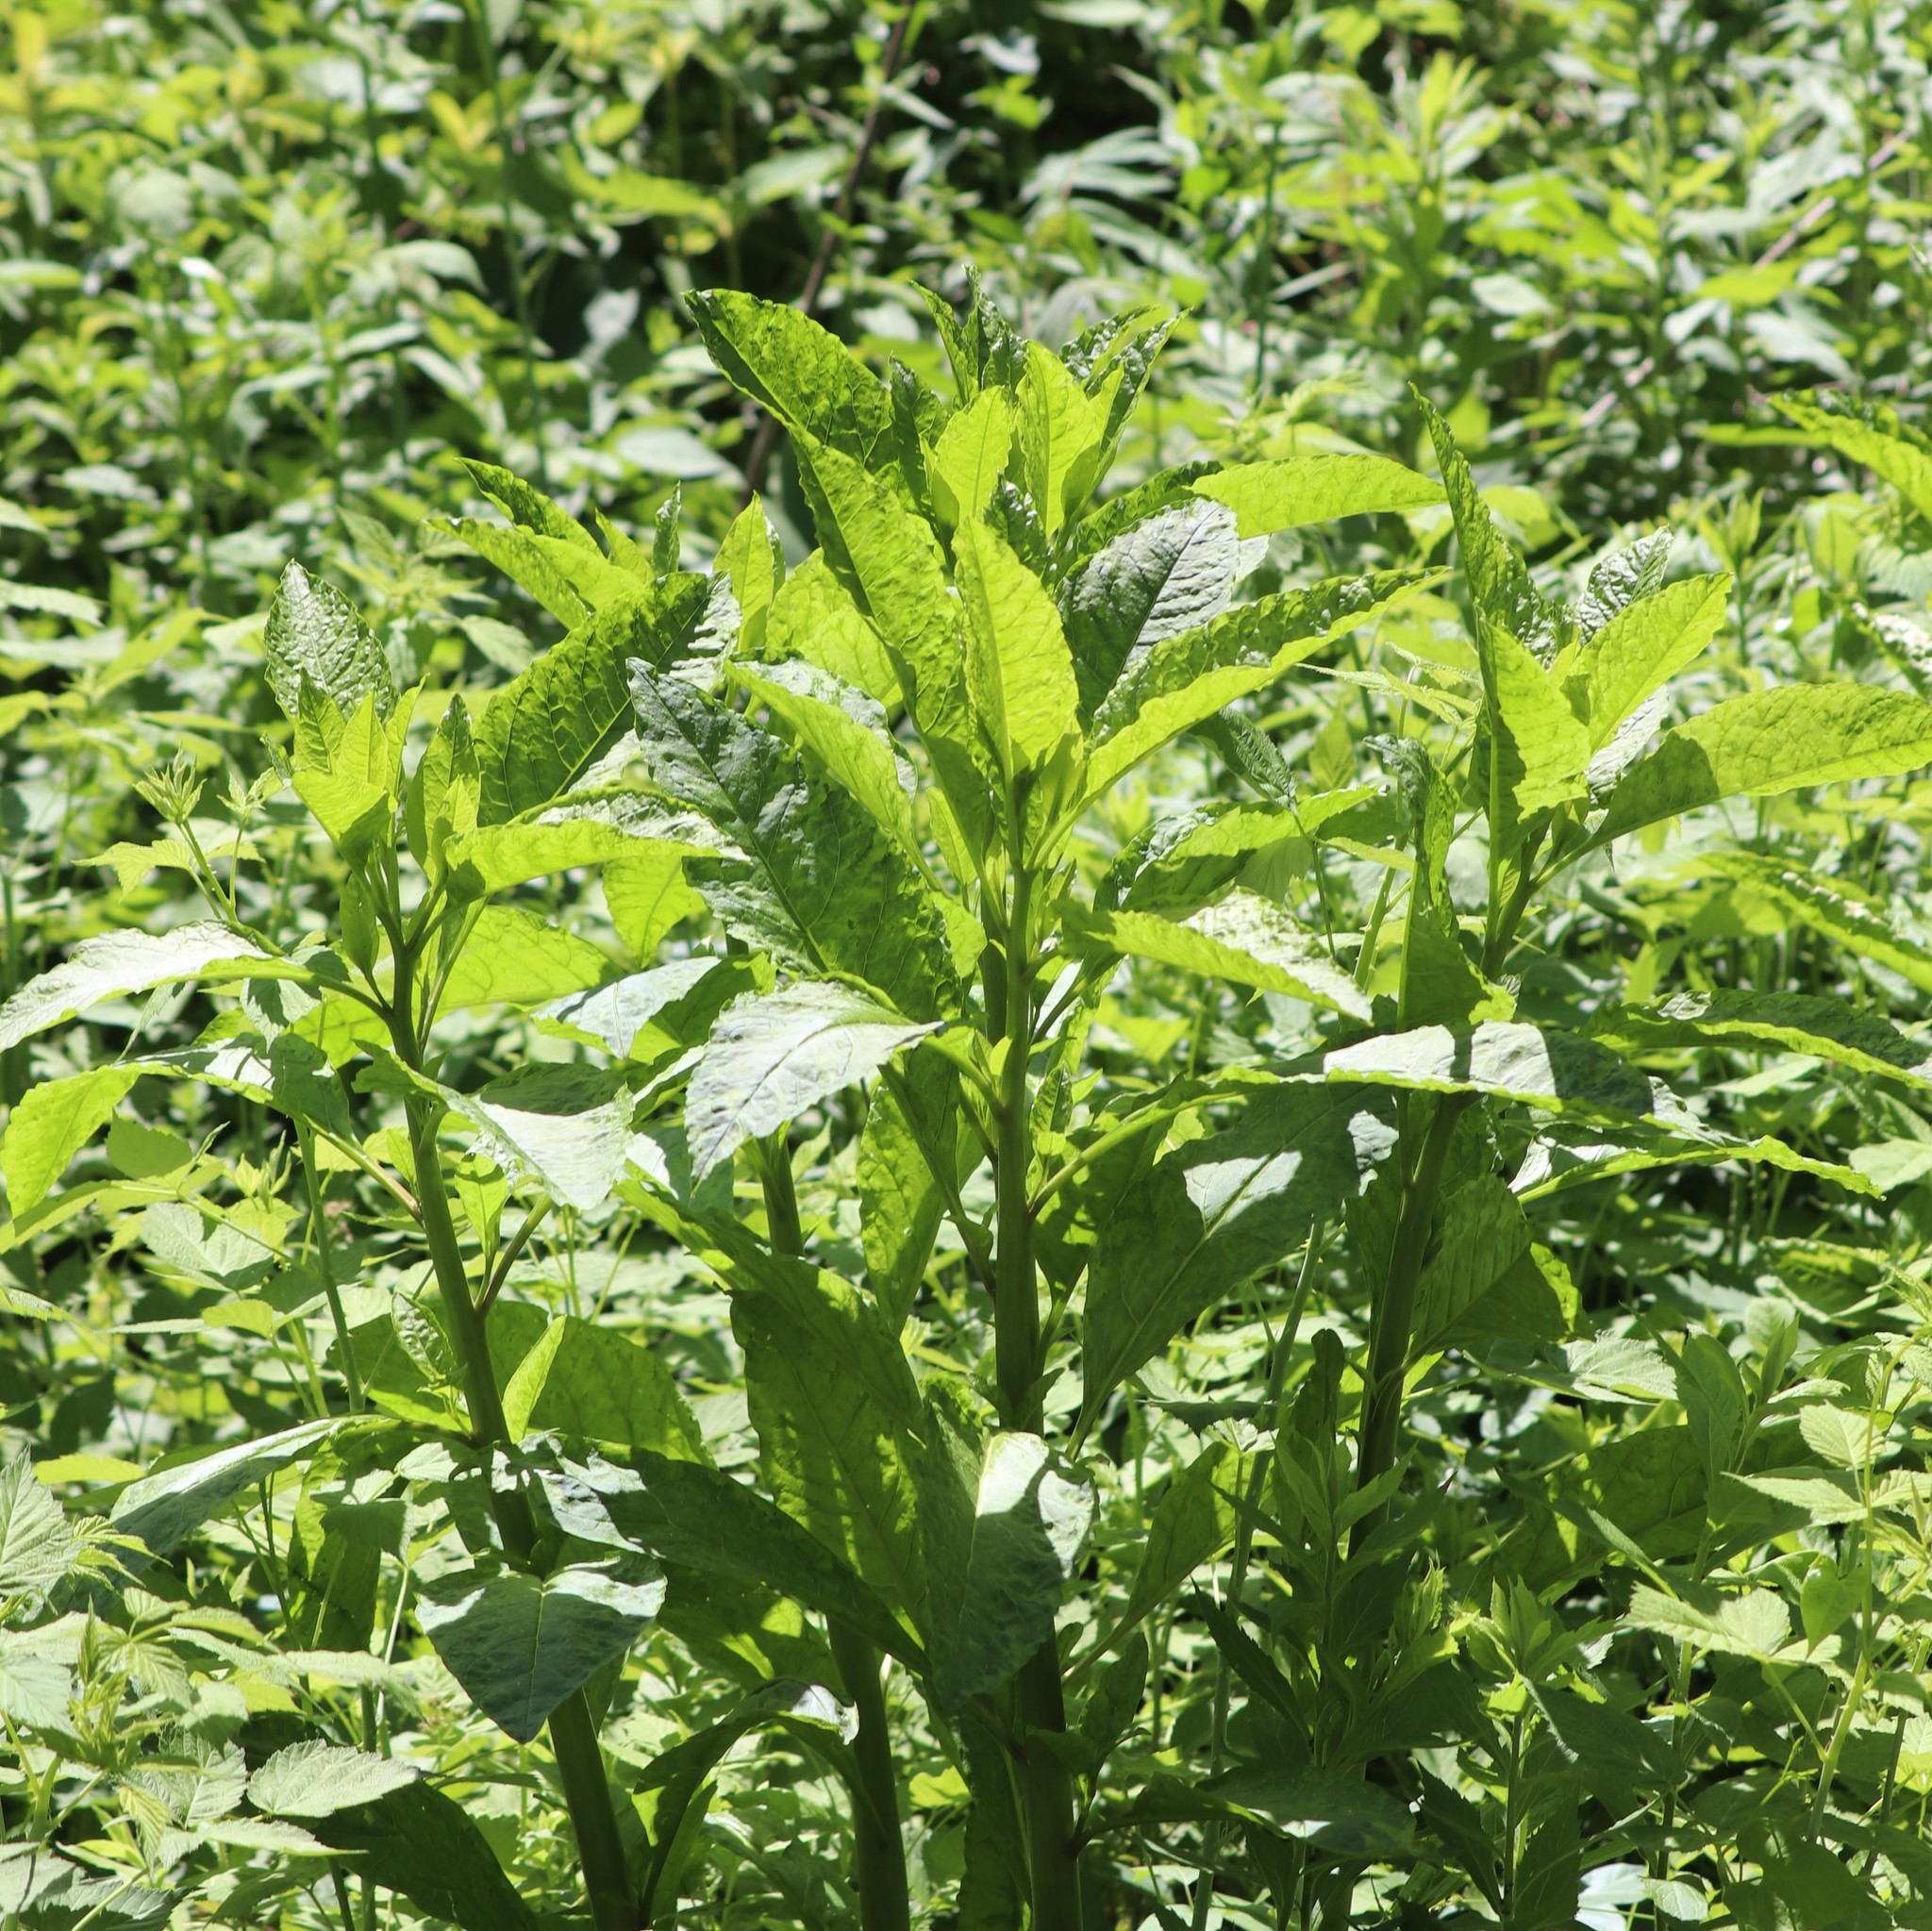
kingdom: Plantae
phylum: Tracheophyta
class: Magnoliopsida
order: Caryophyllales
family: Phytolaccaceae
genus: Phytolacca
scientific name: Phytolacca americana
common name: American pokeweed
